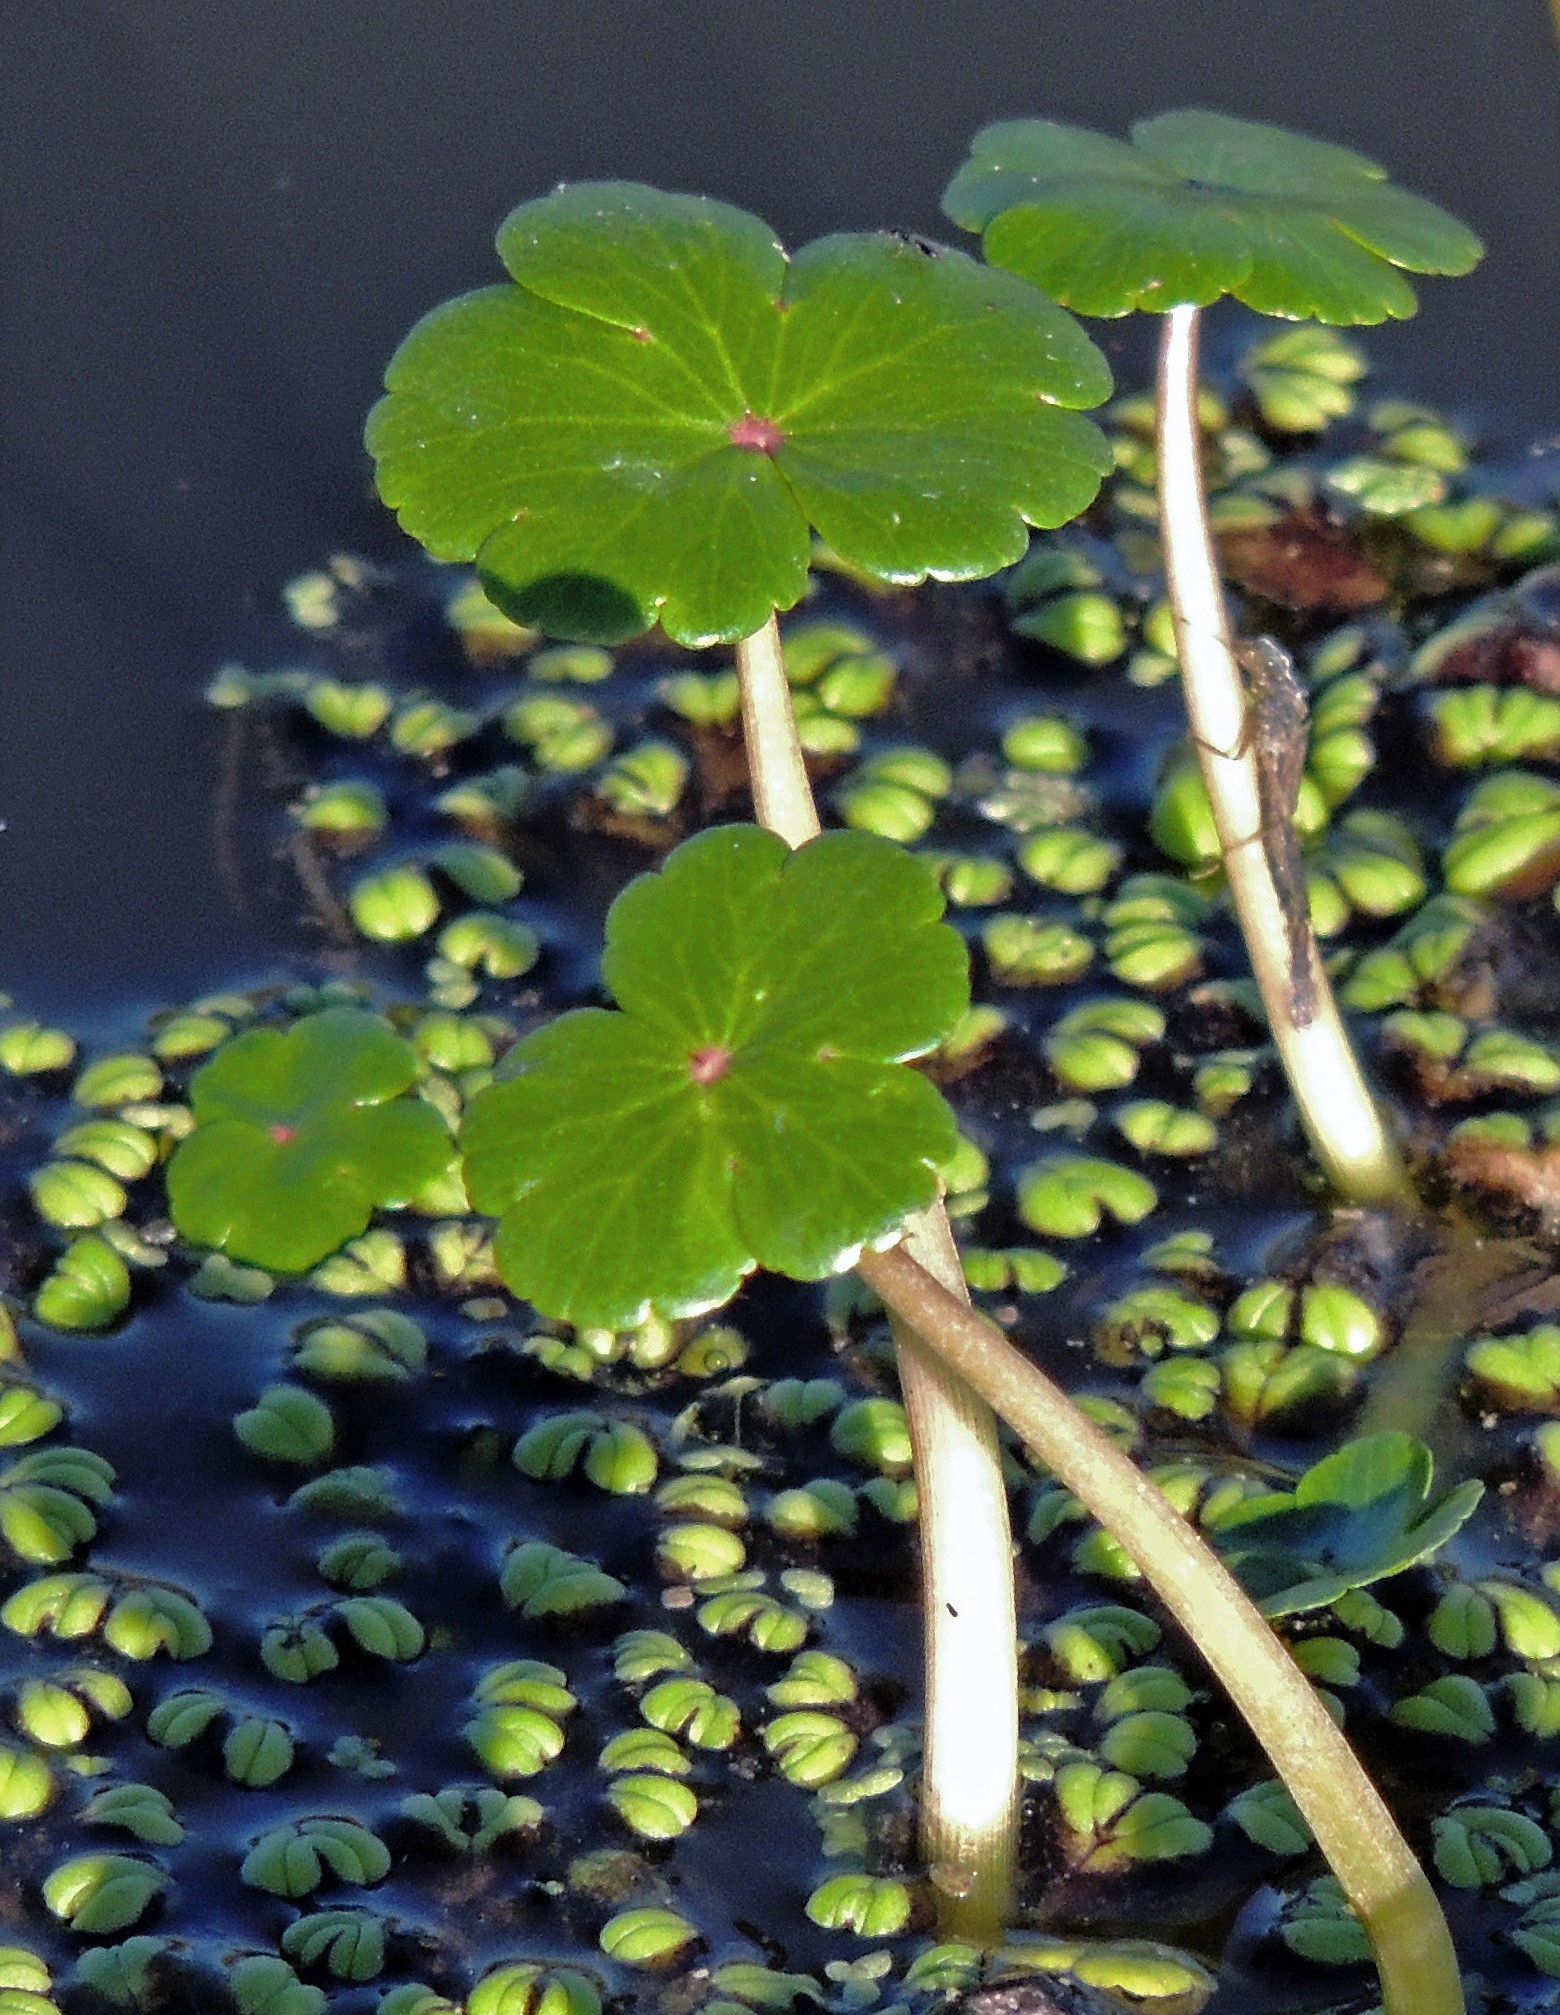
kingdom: Plantae
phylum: Tracheophyta
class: Magnoliopsida
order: Apiales
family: Araliaceae
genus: Hydrocotyle
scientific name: Hydrocotyle ranunculoides
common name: Floating pennywort
